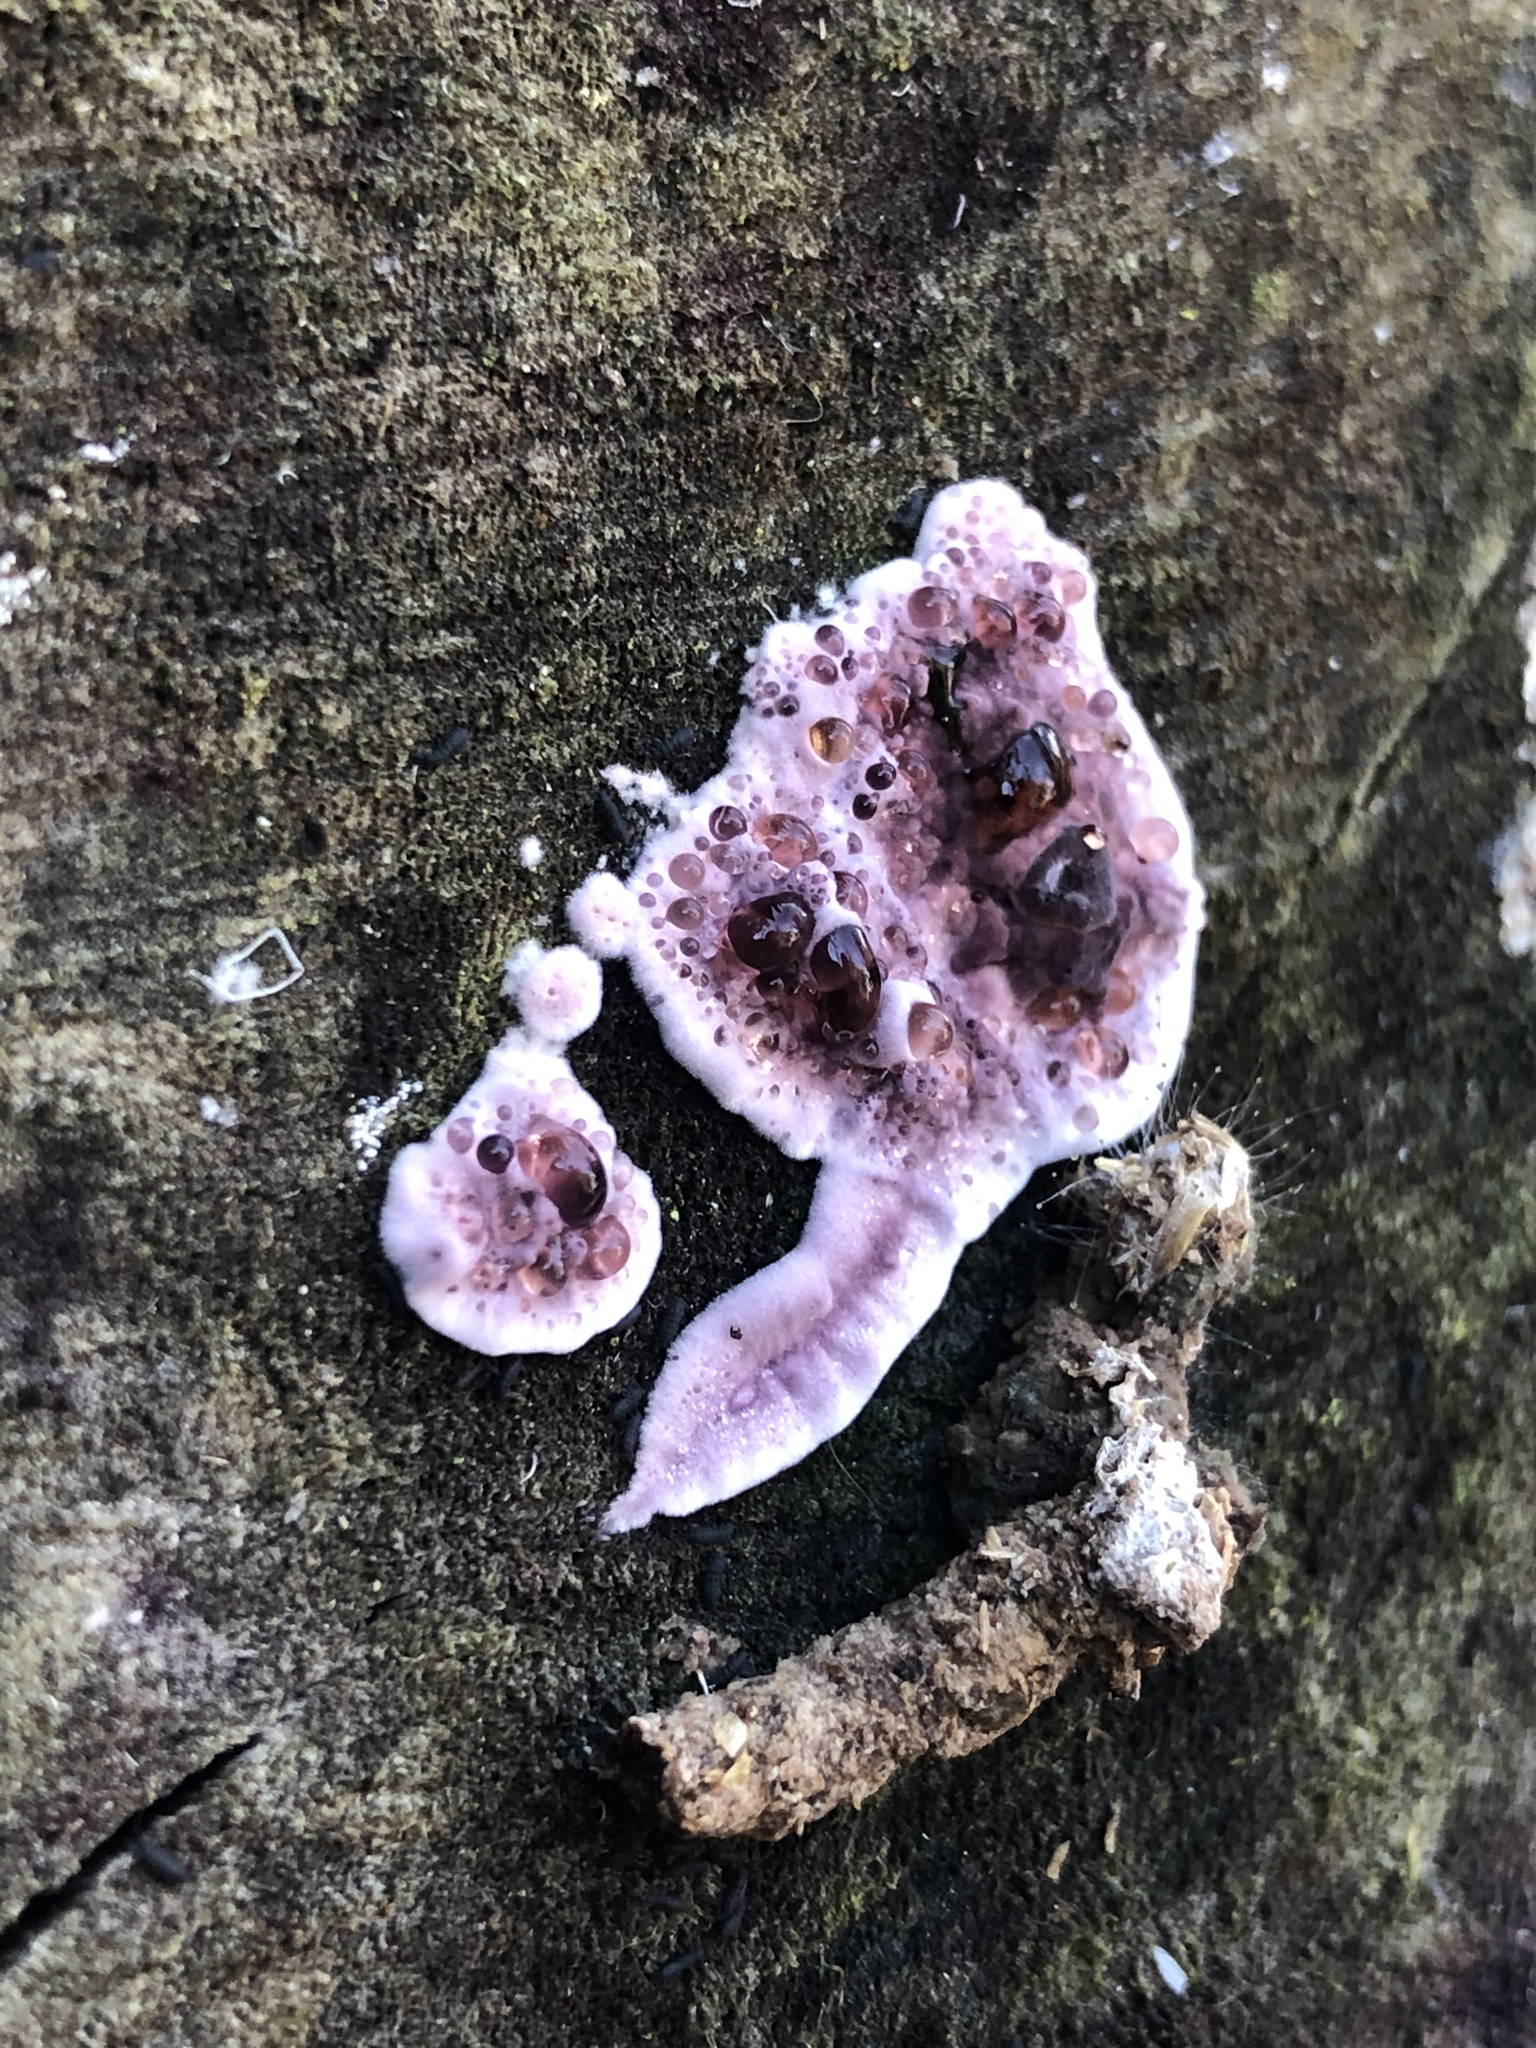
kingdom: Fungi
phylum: Basidiomycota
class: Agaricomycetes
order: Agaricales
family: Cyphellaceae
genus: Chondrostereum
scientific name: Chondrostereum purpureum
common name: Silver leaf disease
